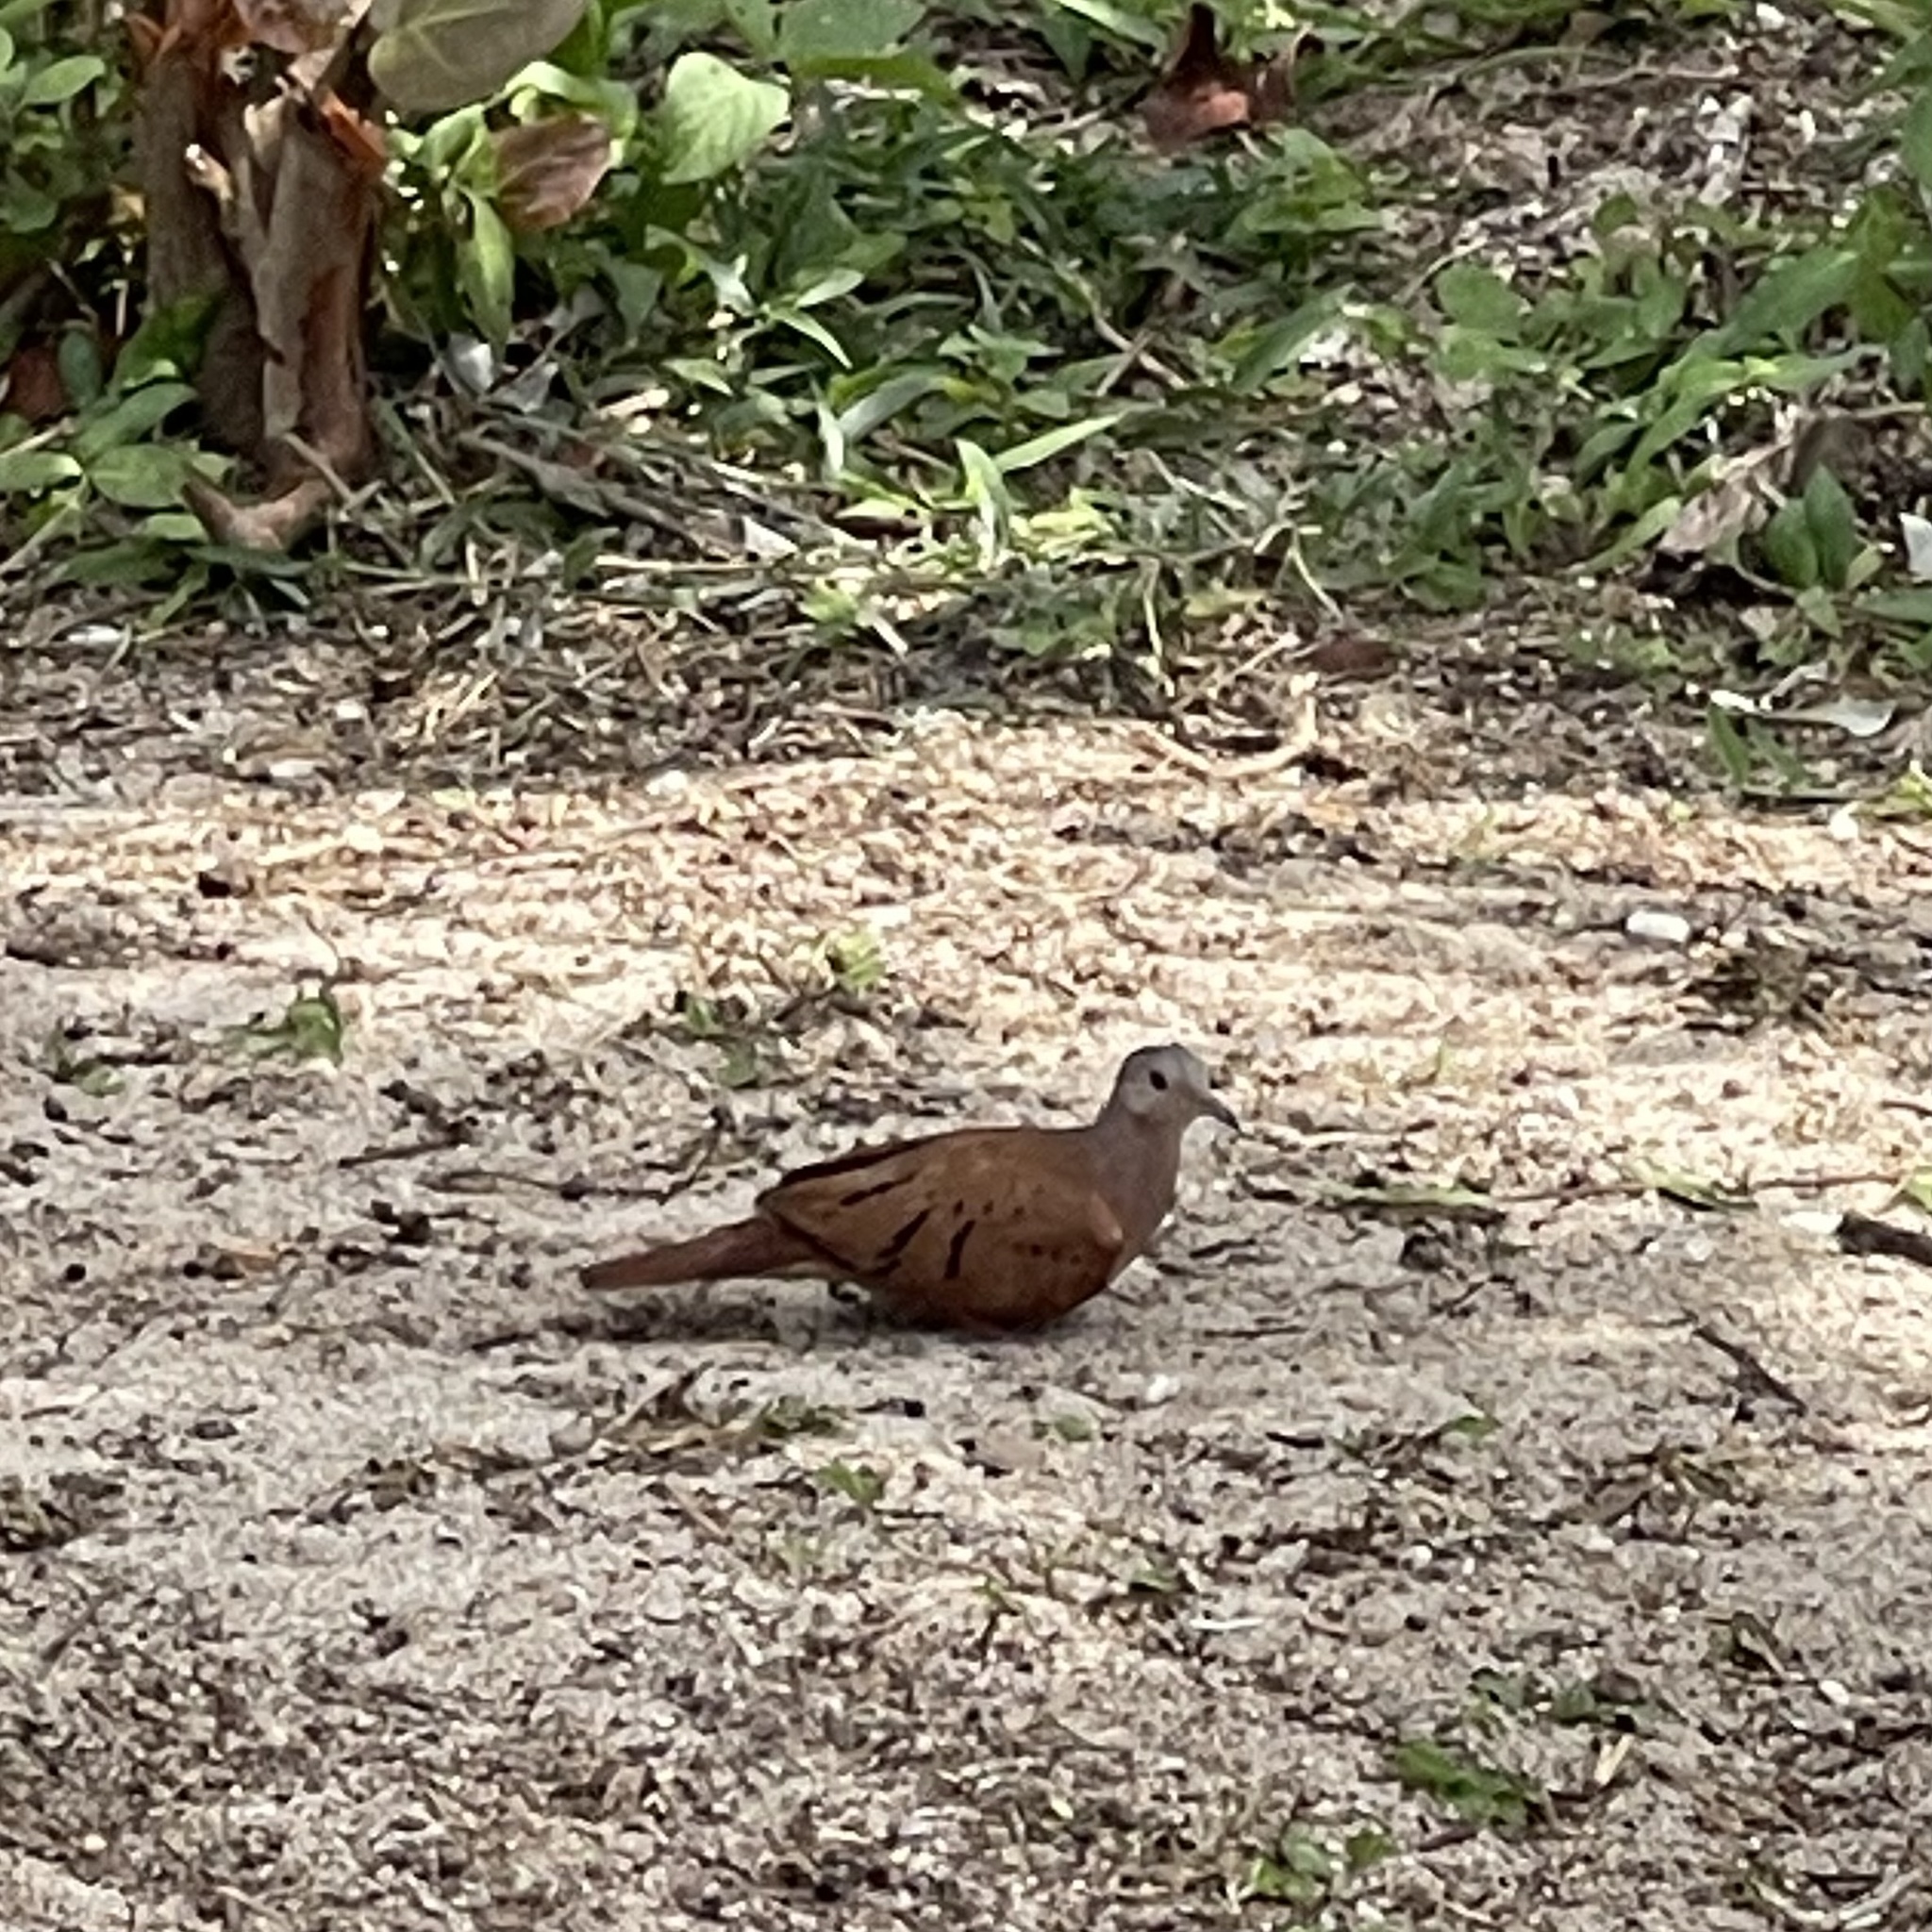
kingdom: Animalia
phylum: Chordata
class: Aves
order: Columbiformes
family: Columbidae
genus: Columbina
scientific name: Columbina talpacoti
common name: Ruddy ground dove
